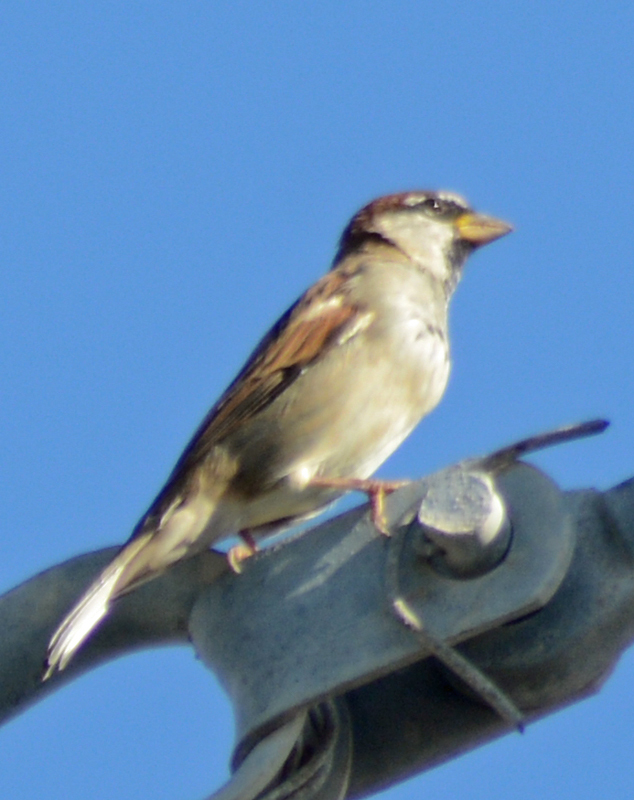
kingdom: Animalia
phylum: Chordata
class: Aves
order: Passeriformes
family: Passeridae
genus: Passer
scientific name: Passer domesticus
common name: House sparrow
